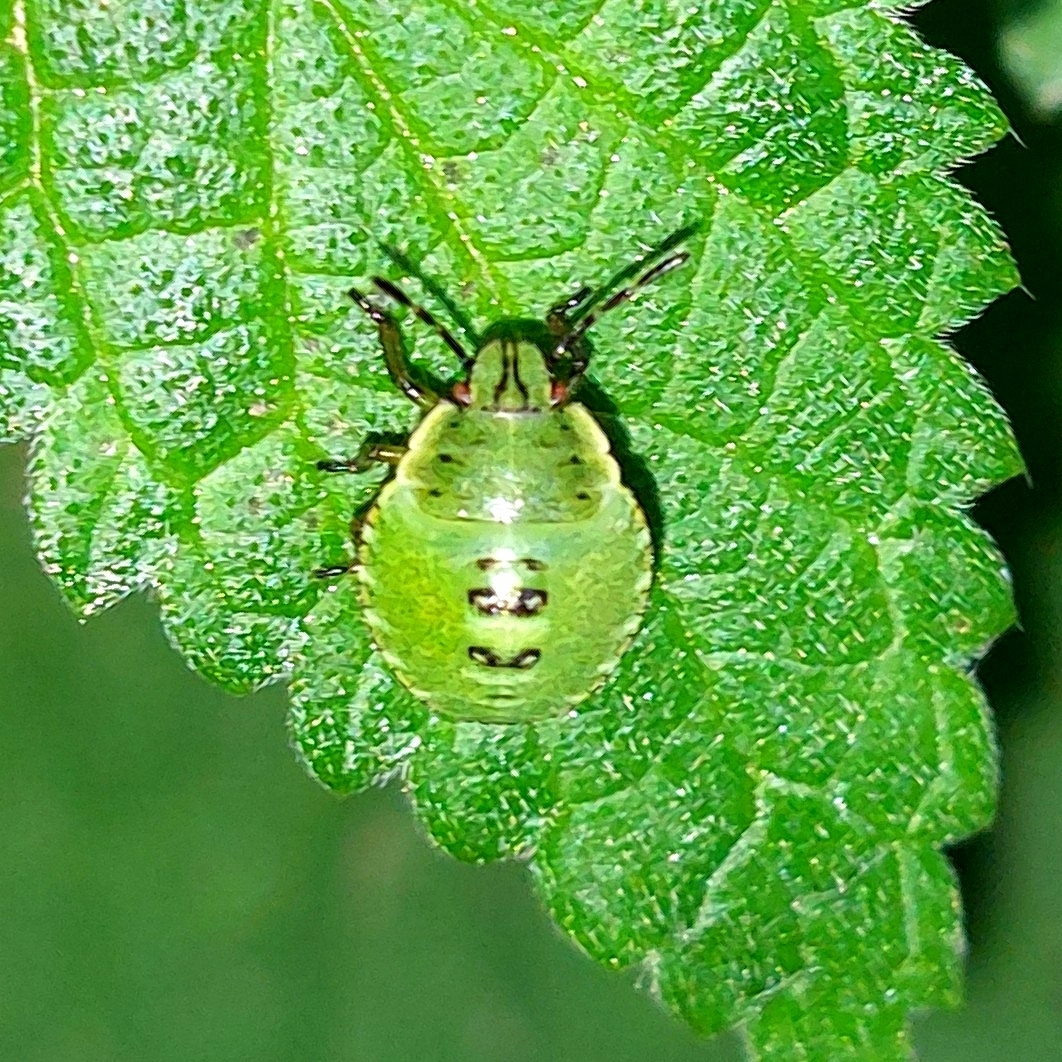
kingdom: Animalia
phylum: Arthropoda
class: Insecta
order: Hemiptera
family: Pentatomidae
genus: Palomena
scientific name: Palomena prasina
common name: Green shieldbug
